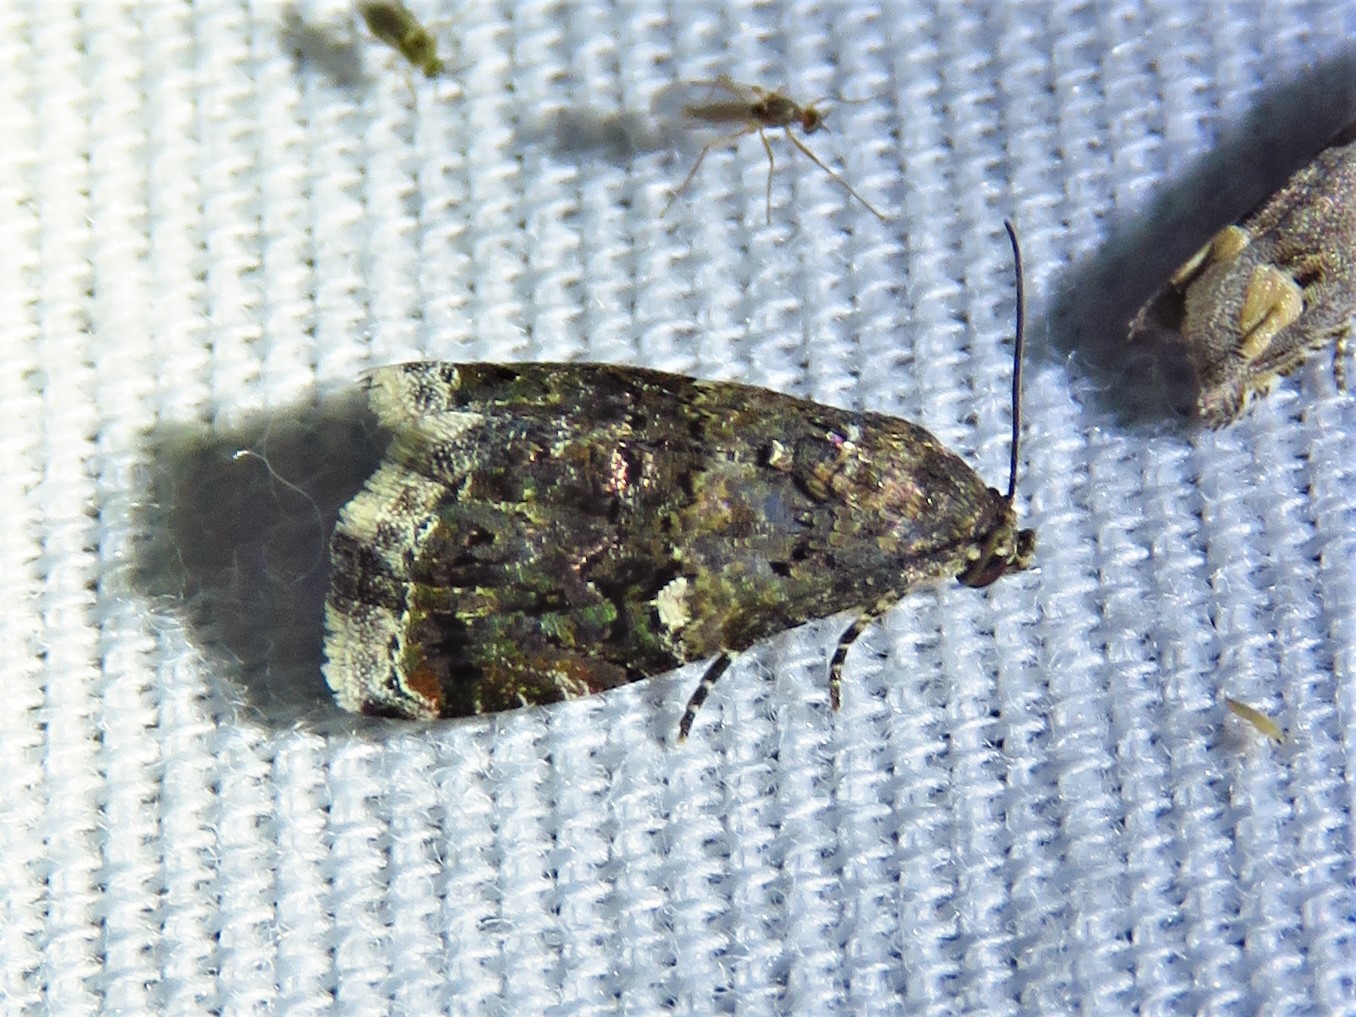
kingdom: Animalia
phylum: Arthropoda
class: Insecta
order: Lepidoptera
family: Noctuidae
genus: Tripudia
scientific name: Tripudia luxuriosa
